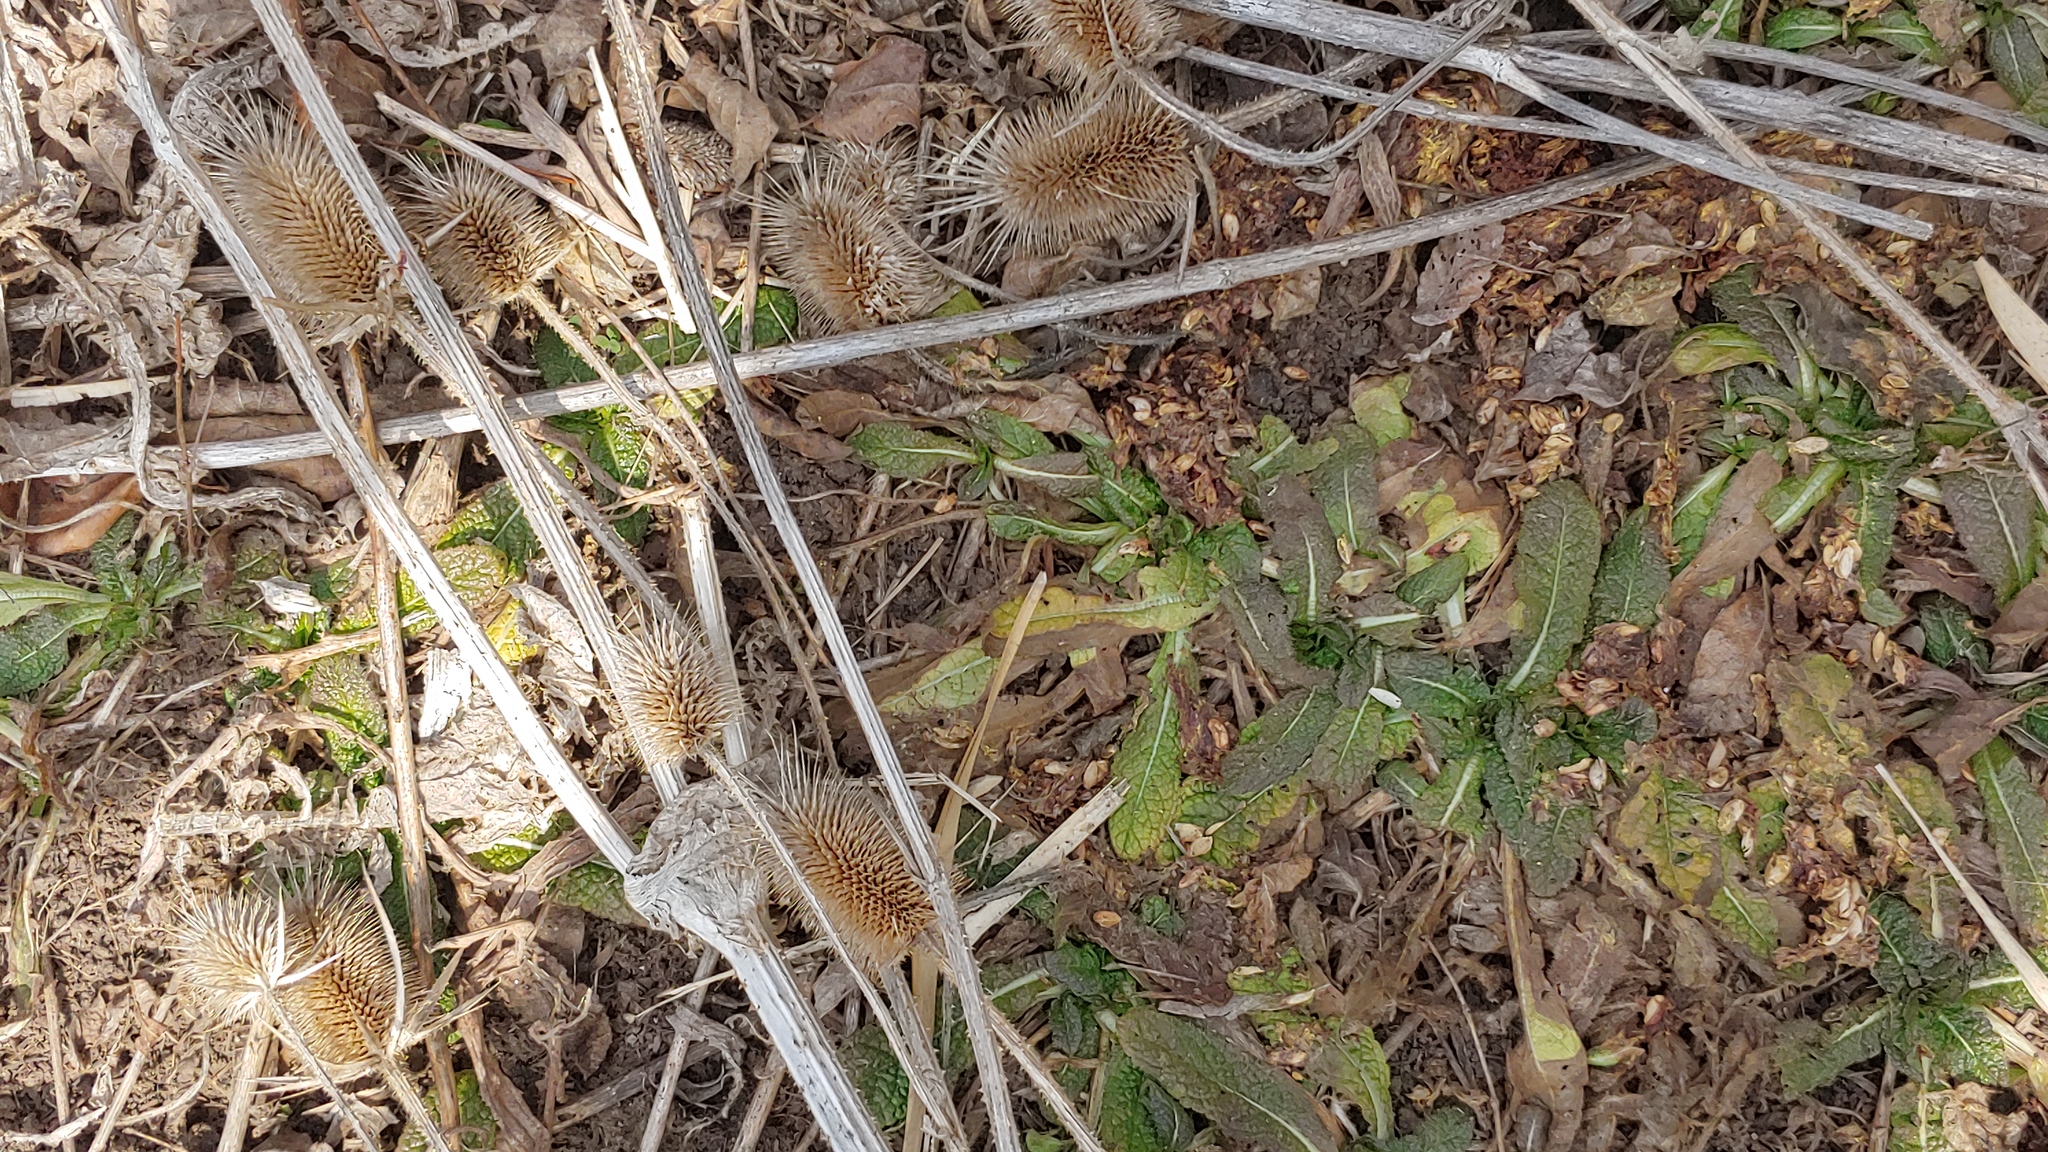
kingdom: Plantae
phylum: Tracheophyta
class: Magnoliopsida
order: Dipsacales
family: Caprifoliaceae
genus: Dipsacus
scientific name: Dipsacus laciniatus
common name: Cut-leaved teasel
